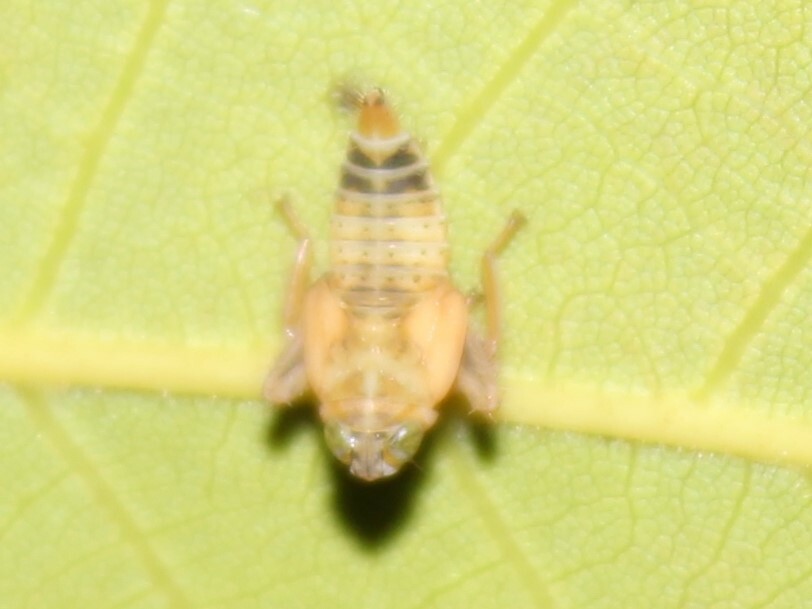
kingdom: Animalia
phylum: Arthropoda
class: Insecta
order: Hemiptera
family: Cicadellidae
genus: Jikradia
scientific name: Jikradia olitoria
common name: Coppery leafhopper
